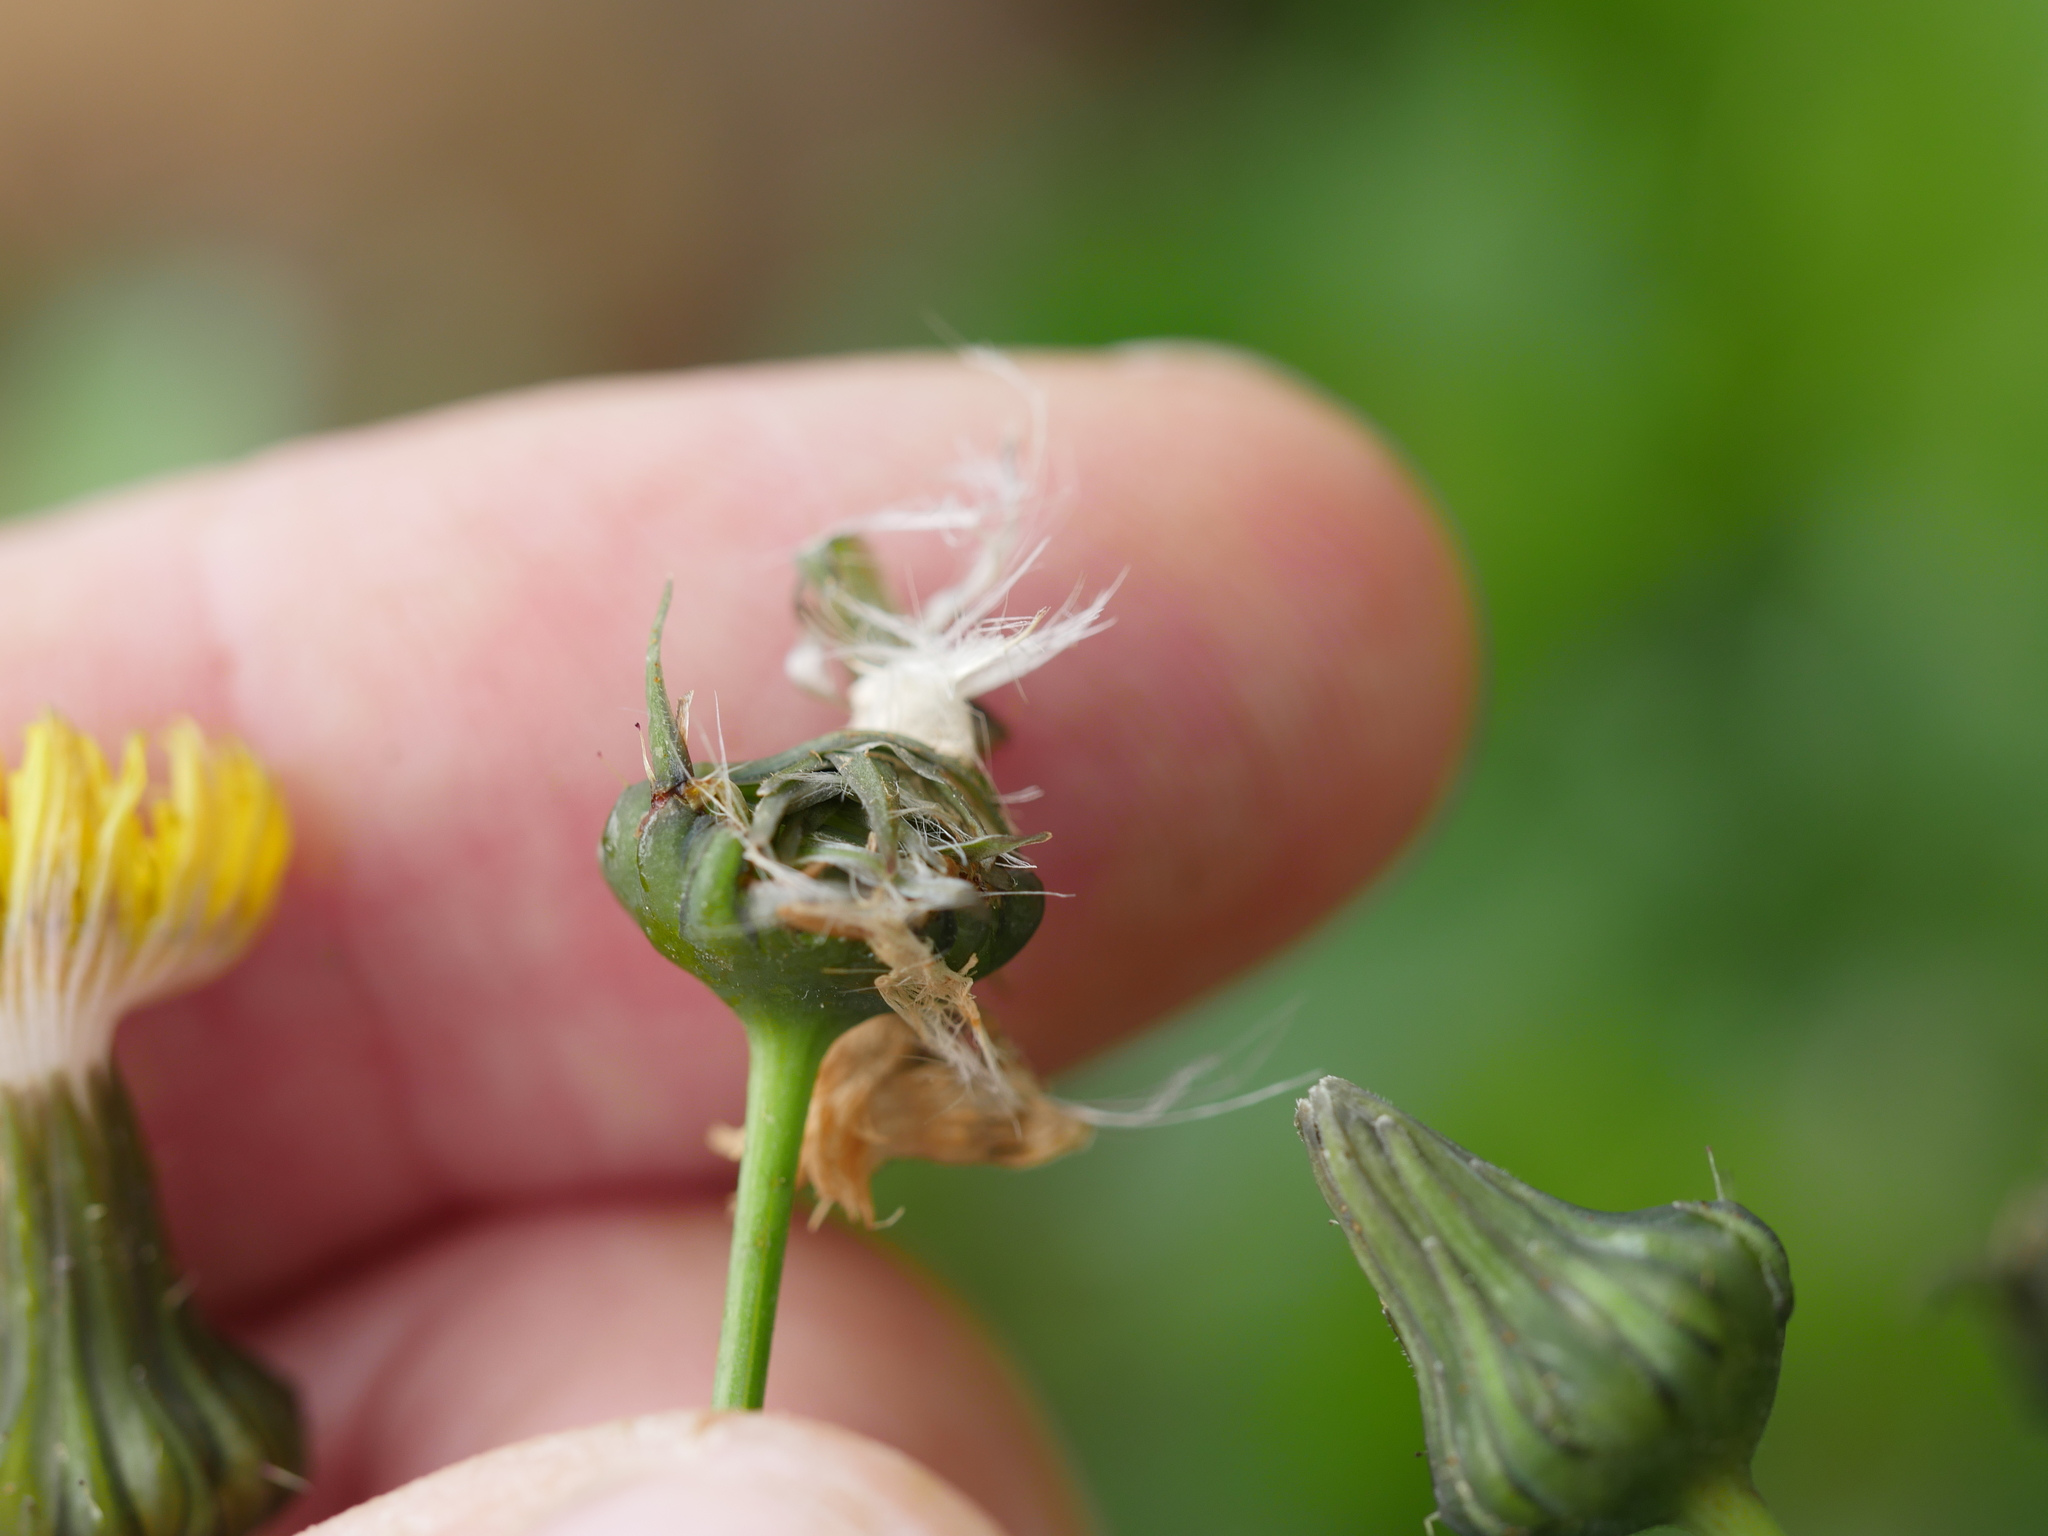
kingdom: Plantae
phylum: Tracheophyta
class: Magnoliopsida
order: Asterales
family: Asteraceae
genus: Sonchus
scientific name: Sonchus oleraceus
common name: Common sowthistle
